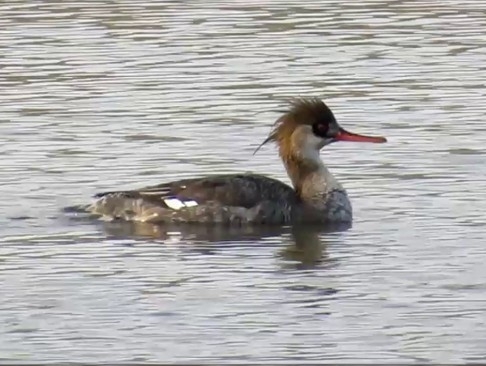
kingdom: Animalia
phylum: Chordata
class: Aves
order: Anseriformes
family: Anatidae
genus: Mergus
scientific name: Mergus serrator
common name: Red-breasted merganser
